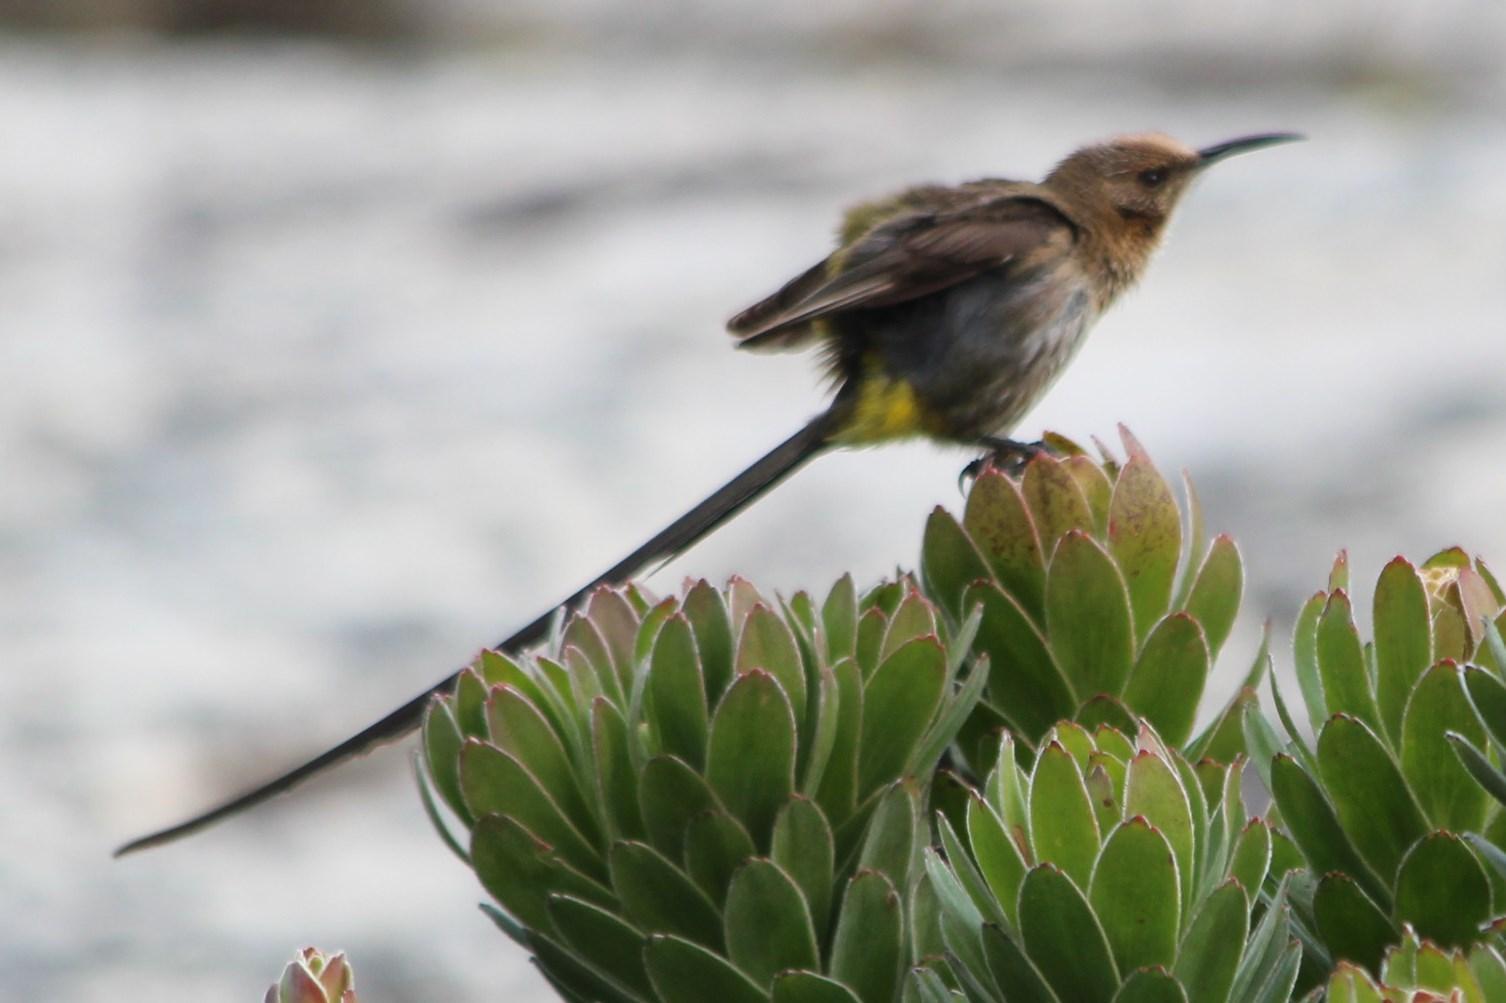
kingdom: Animalia
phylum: Chordata
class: Aves
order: Passeriformes
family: Promeropidae
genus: Promerops
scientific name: Promerops cafer
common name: Cape sugarbird
